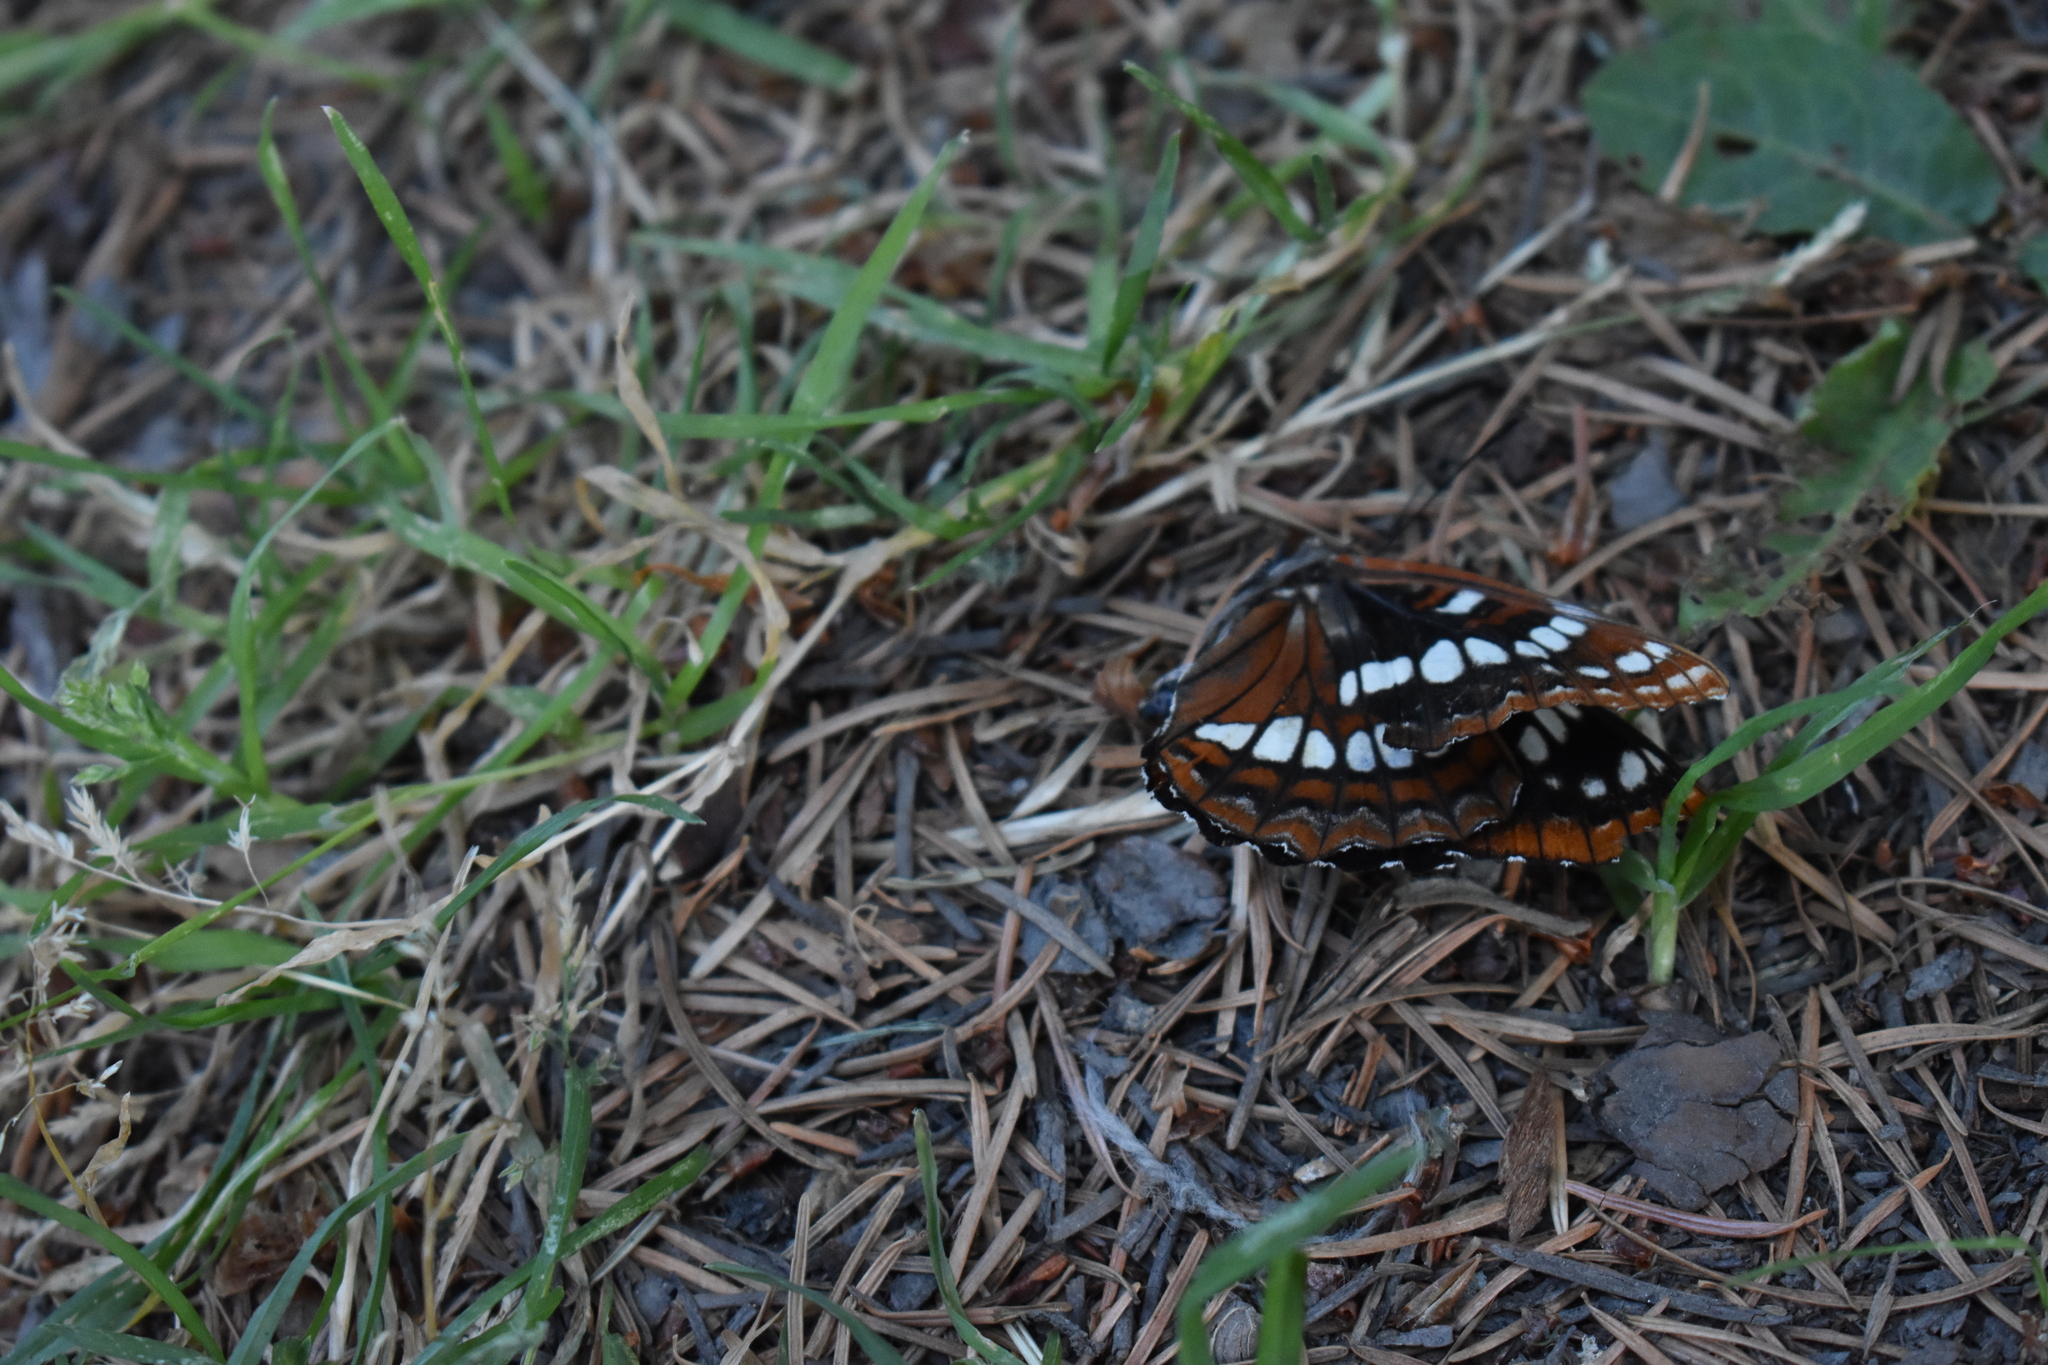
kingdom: Animalia
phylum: Arthropoda
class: Insecta
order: Lepidoptera
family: Nymphalidae
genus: Limenitis
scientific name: Limenitis lorquini
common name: Lorquin's admiral
